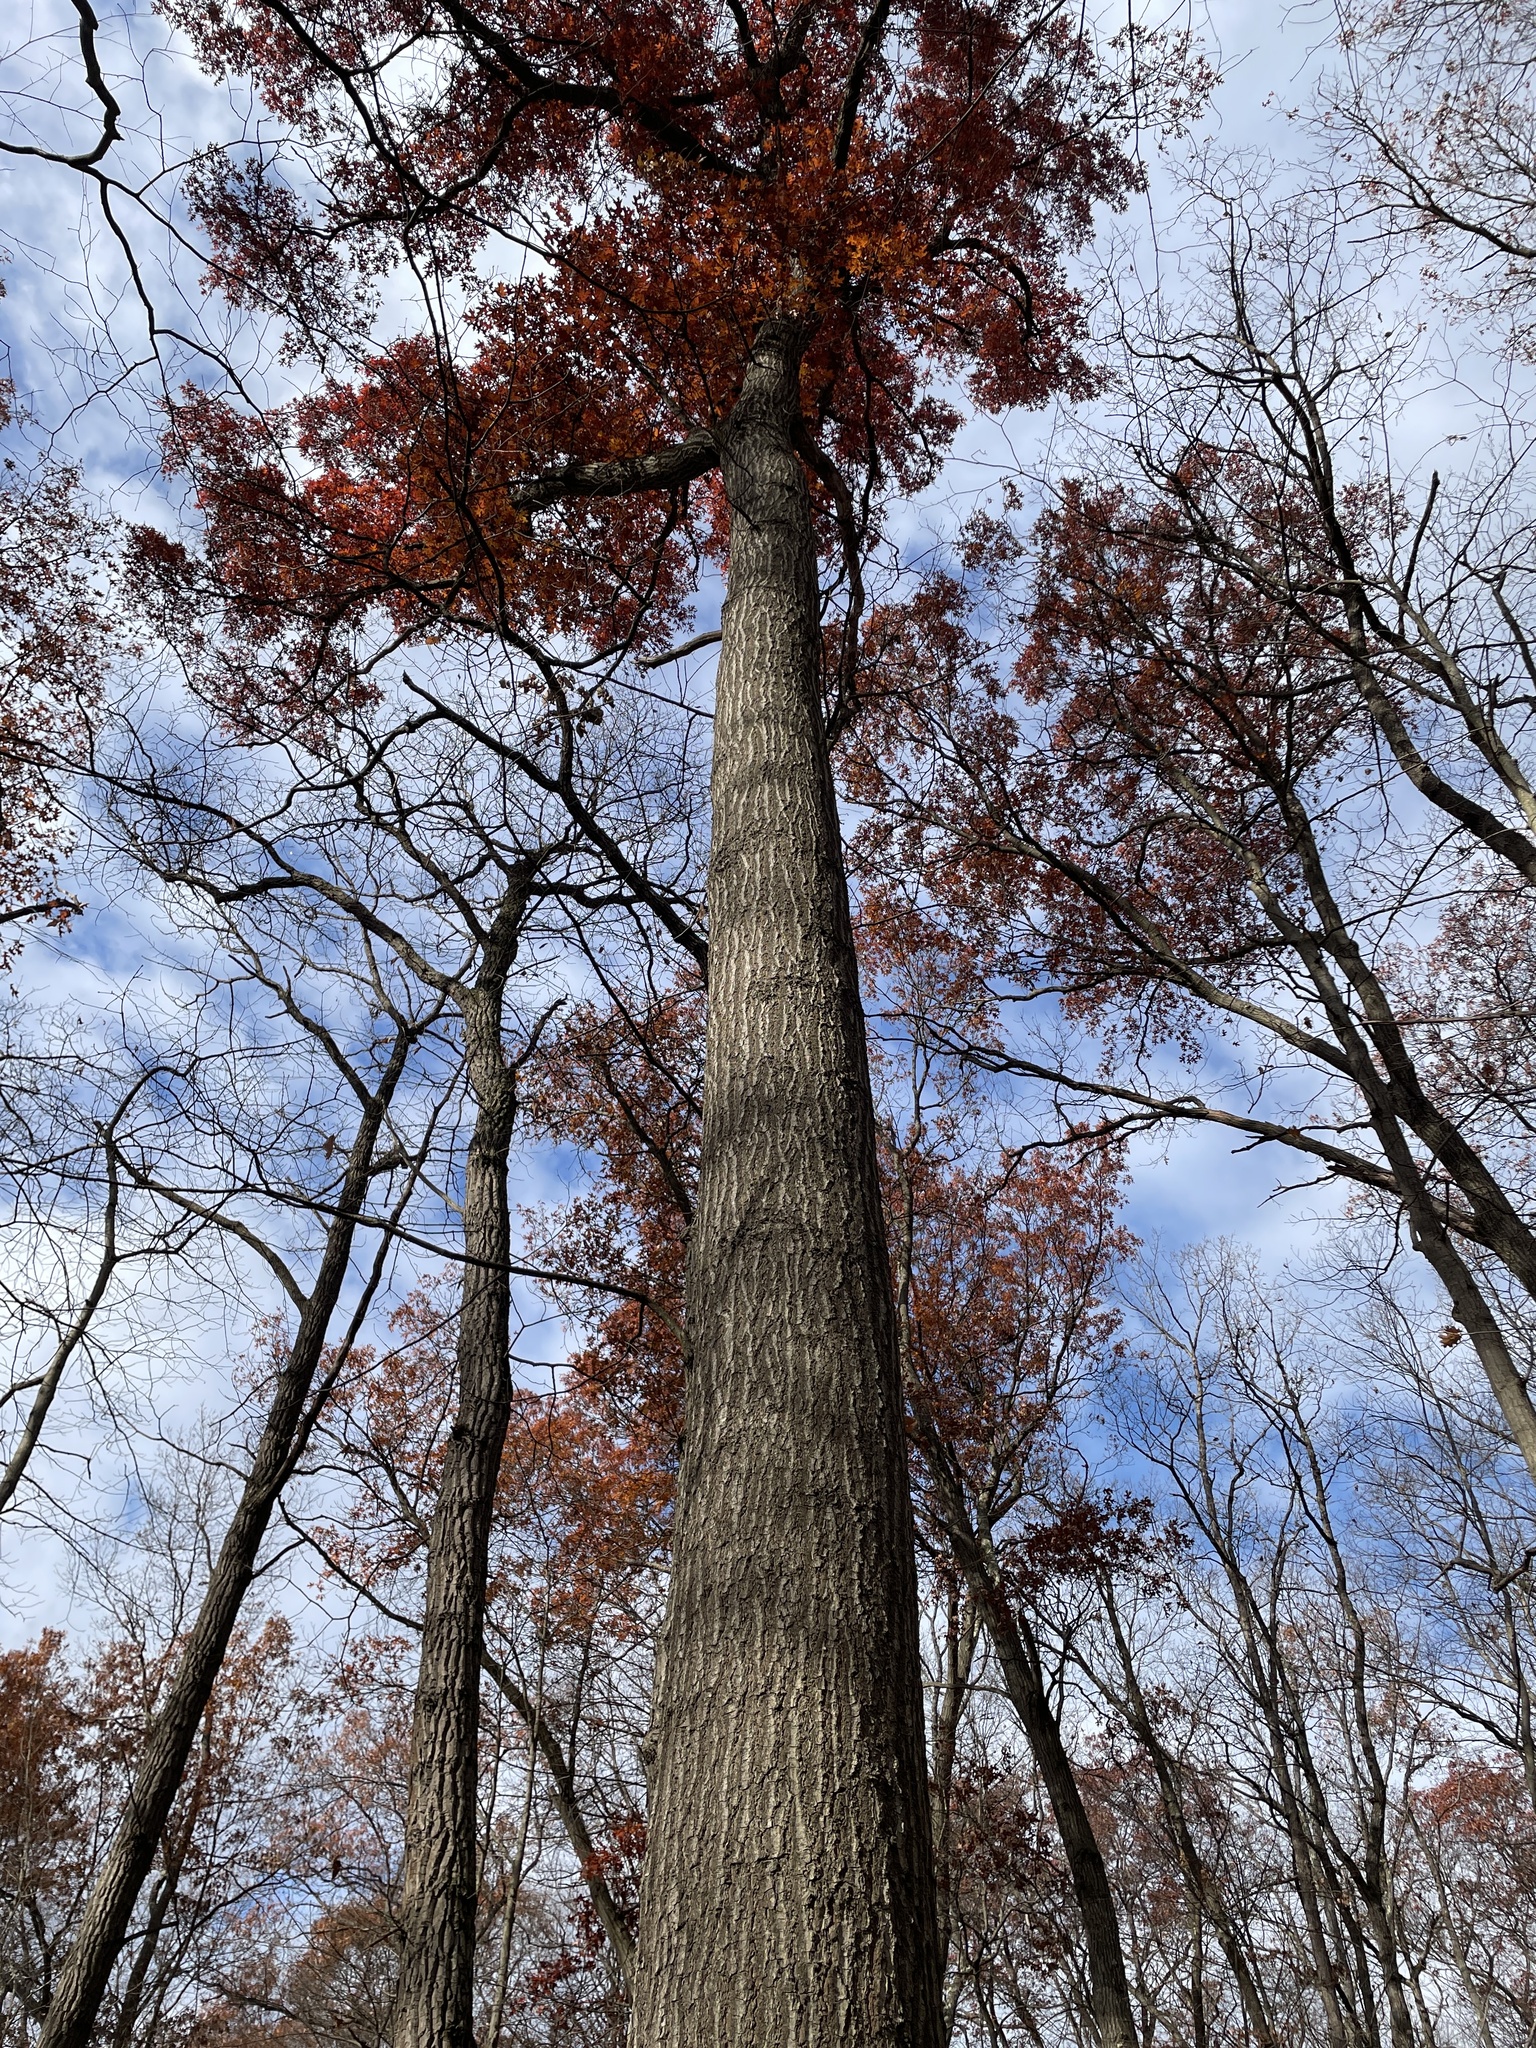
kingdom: Plantae
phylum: Tracheophyta
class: Magnoliopsida
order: Fagales
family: Fagaceae
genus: Quercus
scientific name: Quercus coccinea
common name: Scarlet oak
